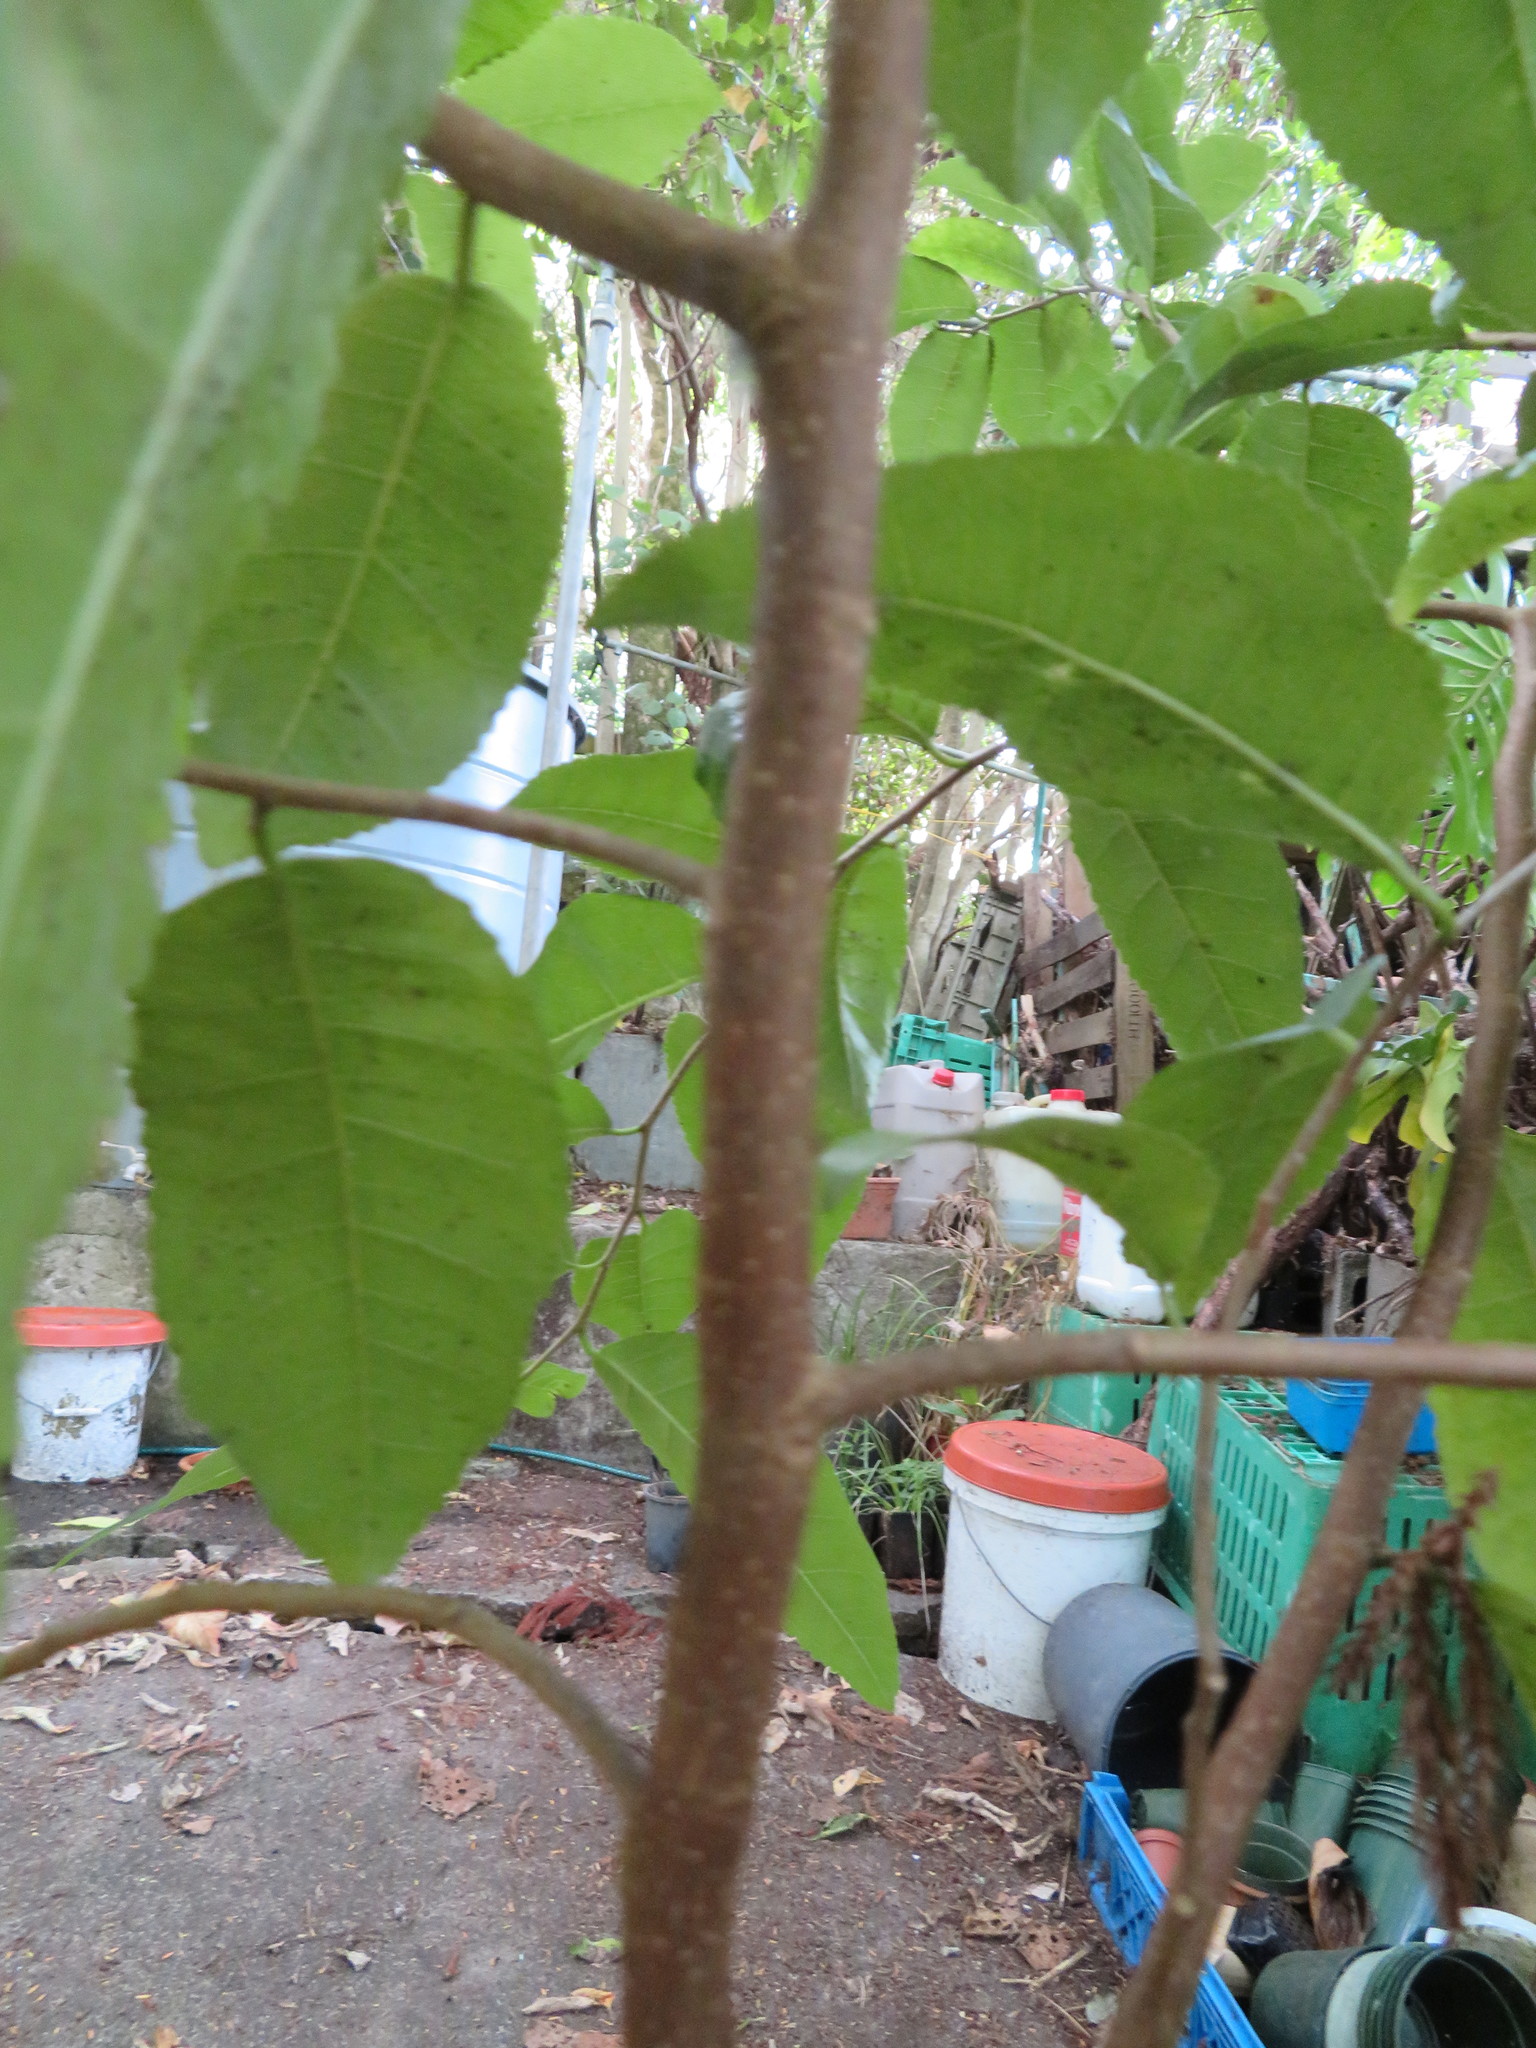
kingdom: Plantae
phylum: Tracheophyta
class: Magnoliopsida
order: Rosales
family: Moraceae
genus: Paratrophis
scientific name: Paratrophis banksii
